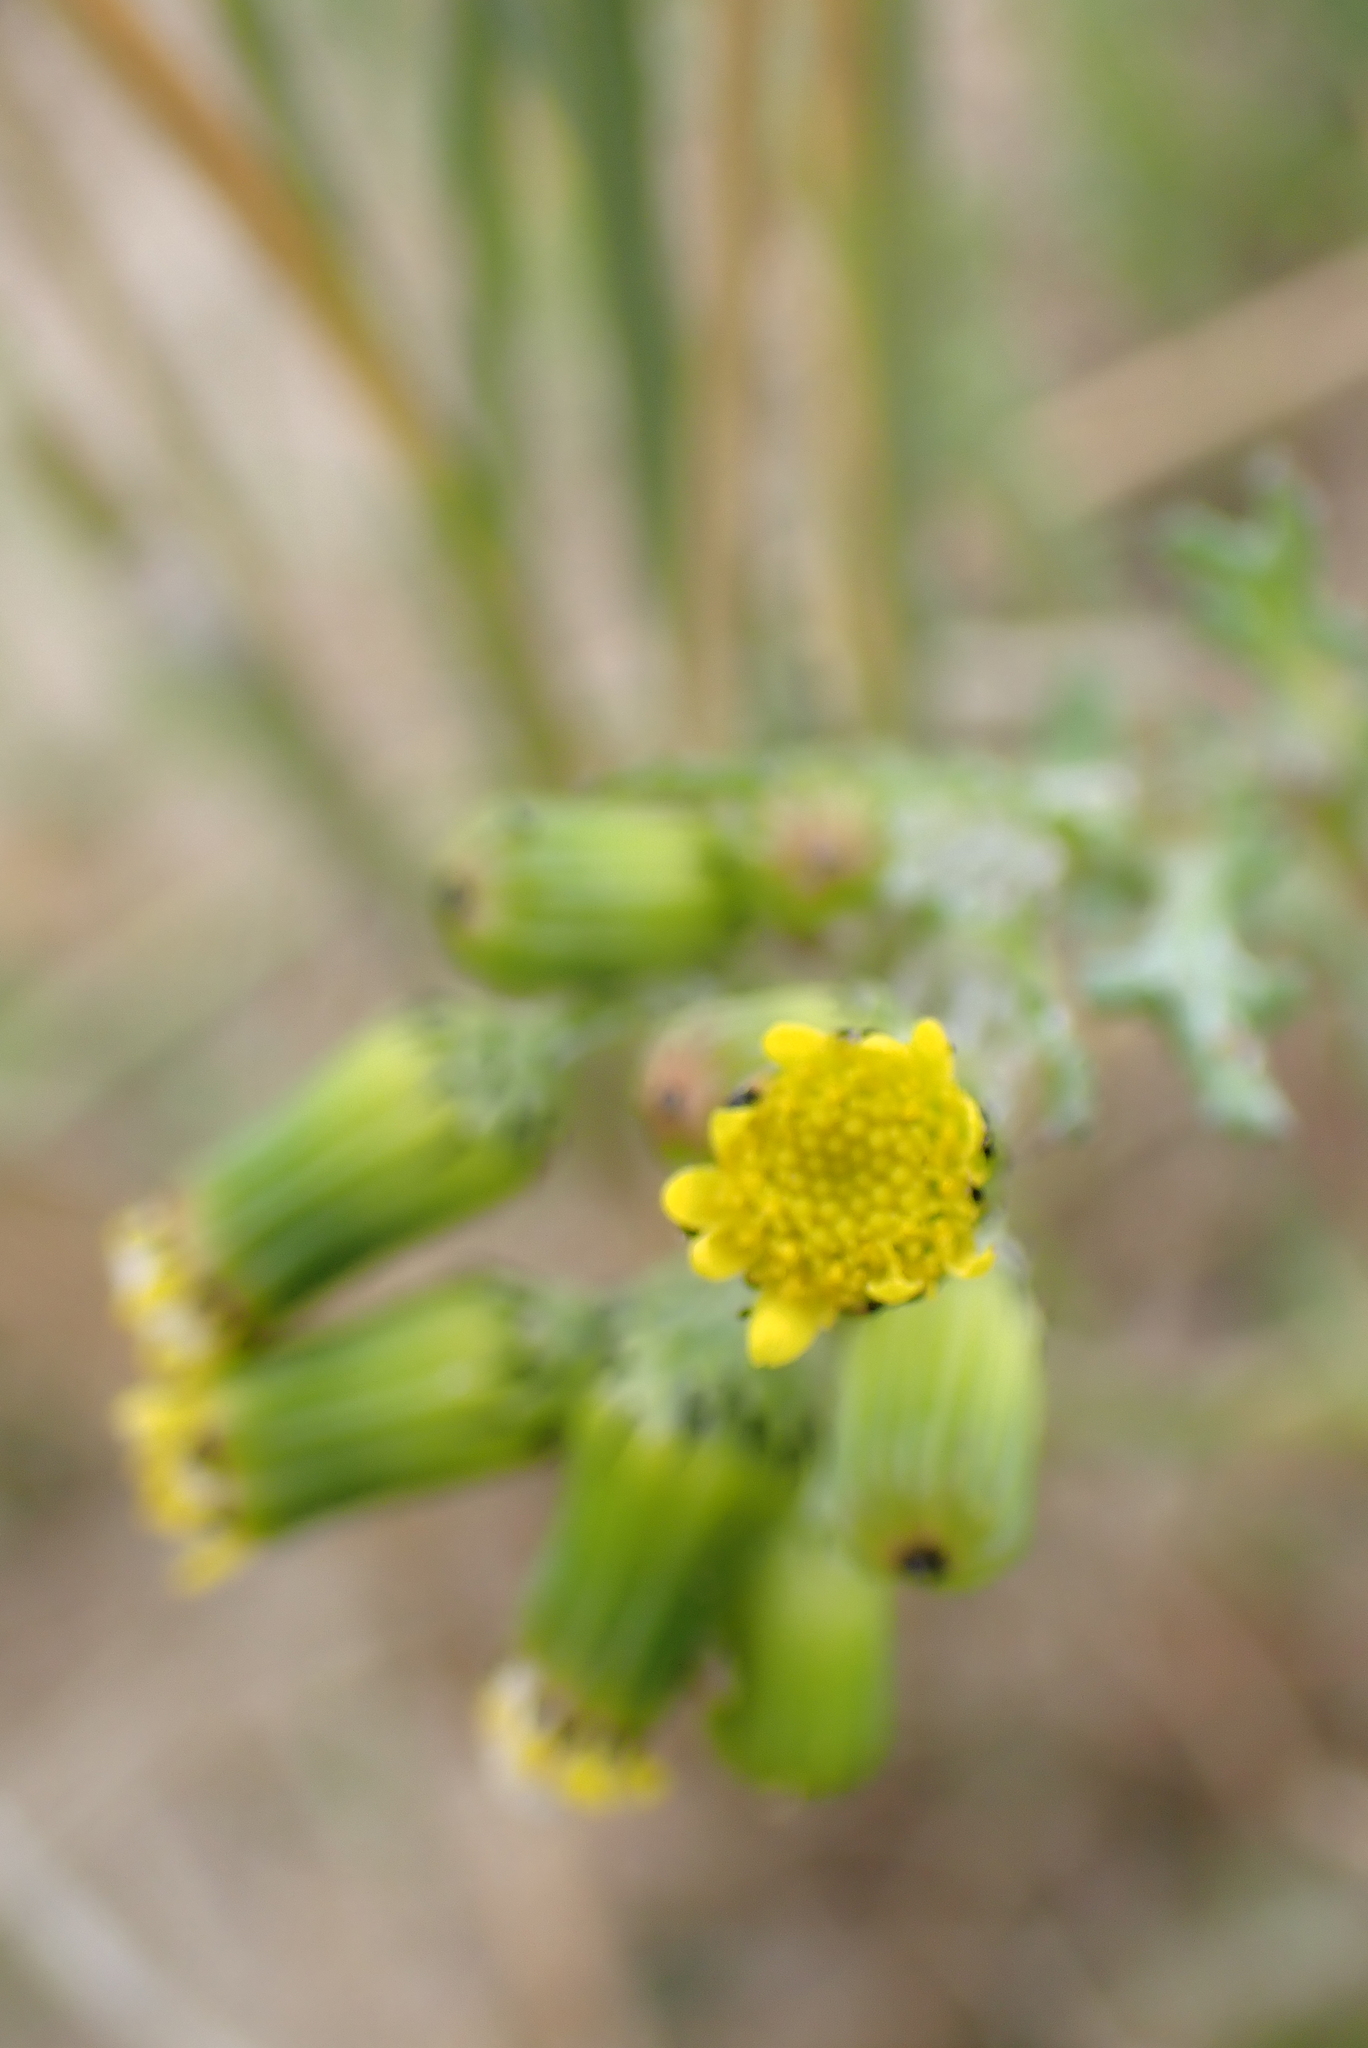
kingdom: Plantae
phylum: Tracheophyta
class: Magnoliopsida
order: Asterales
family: Asteraceae
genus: Senecio
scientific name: Senecio vulgaris
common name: Old-man-in-the-spring
